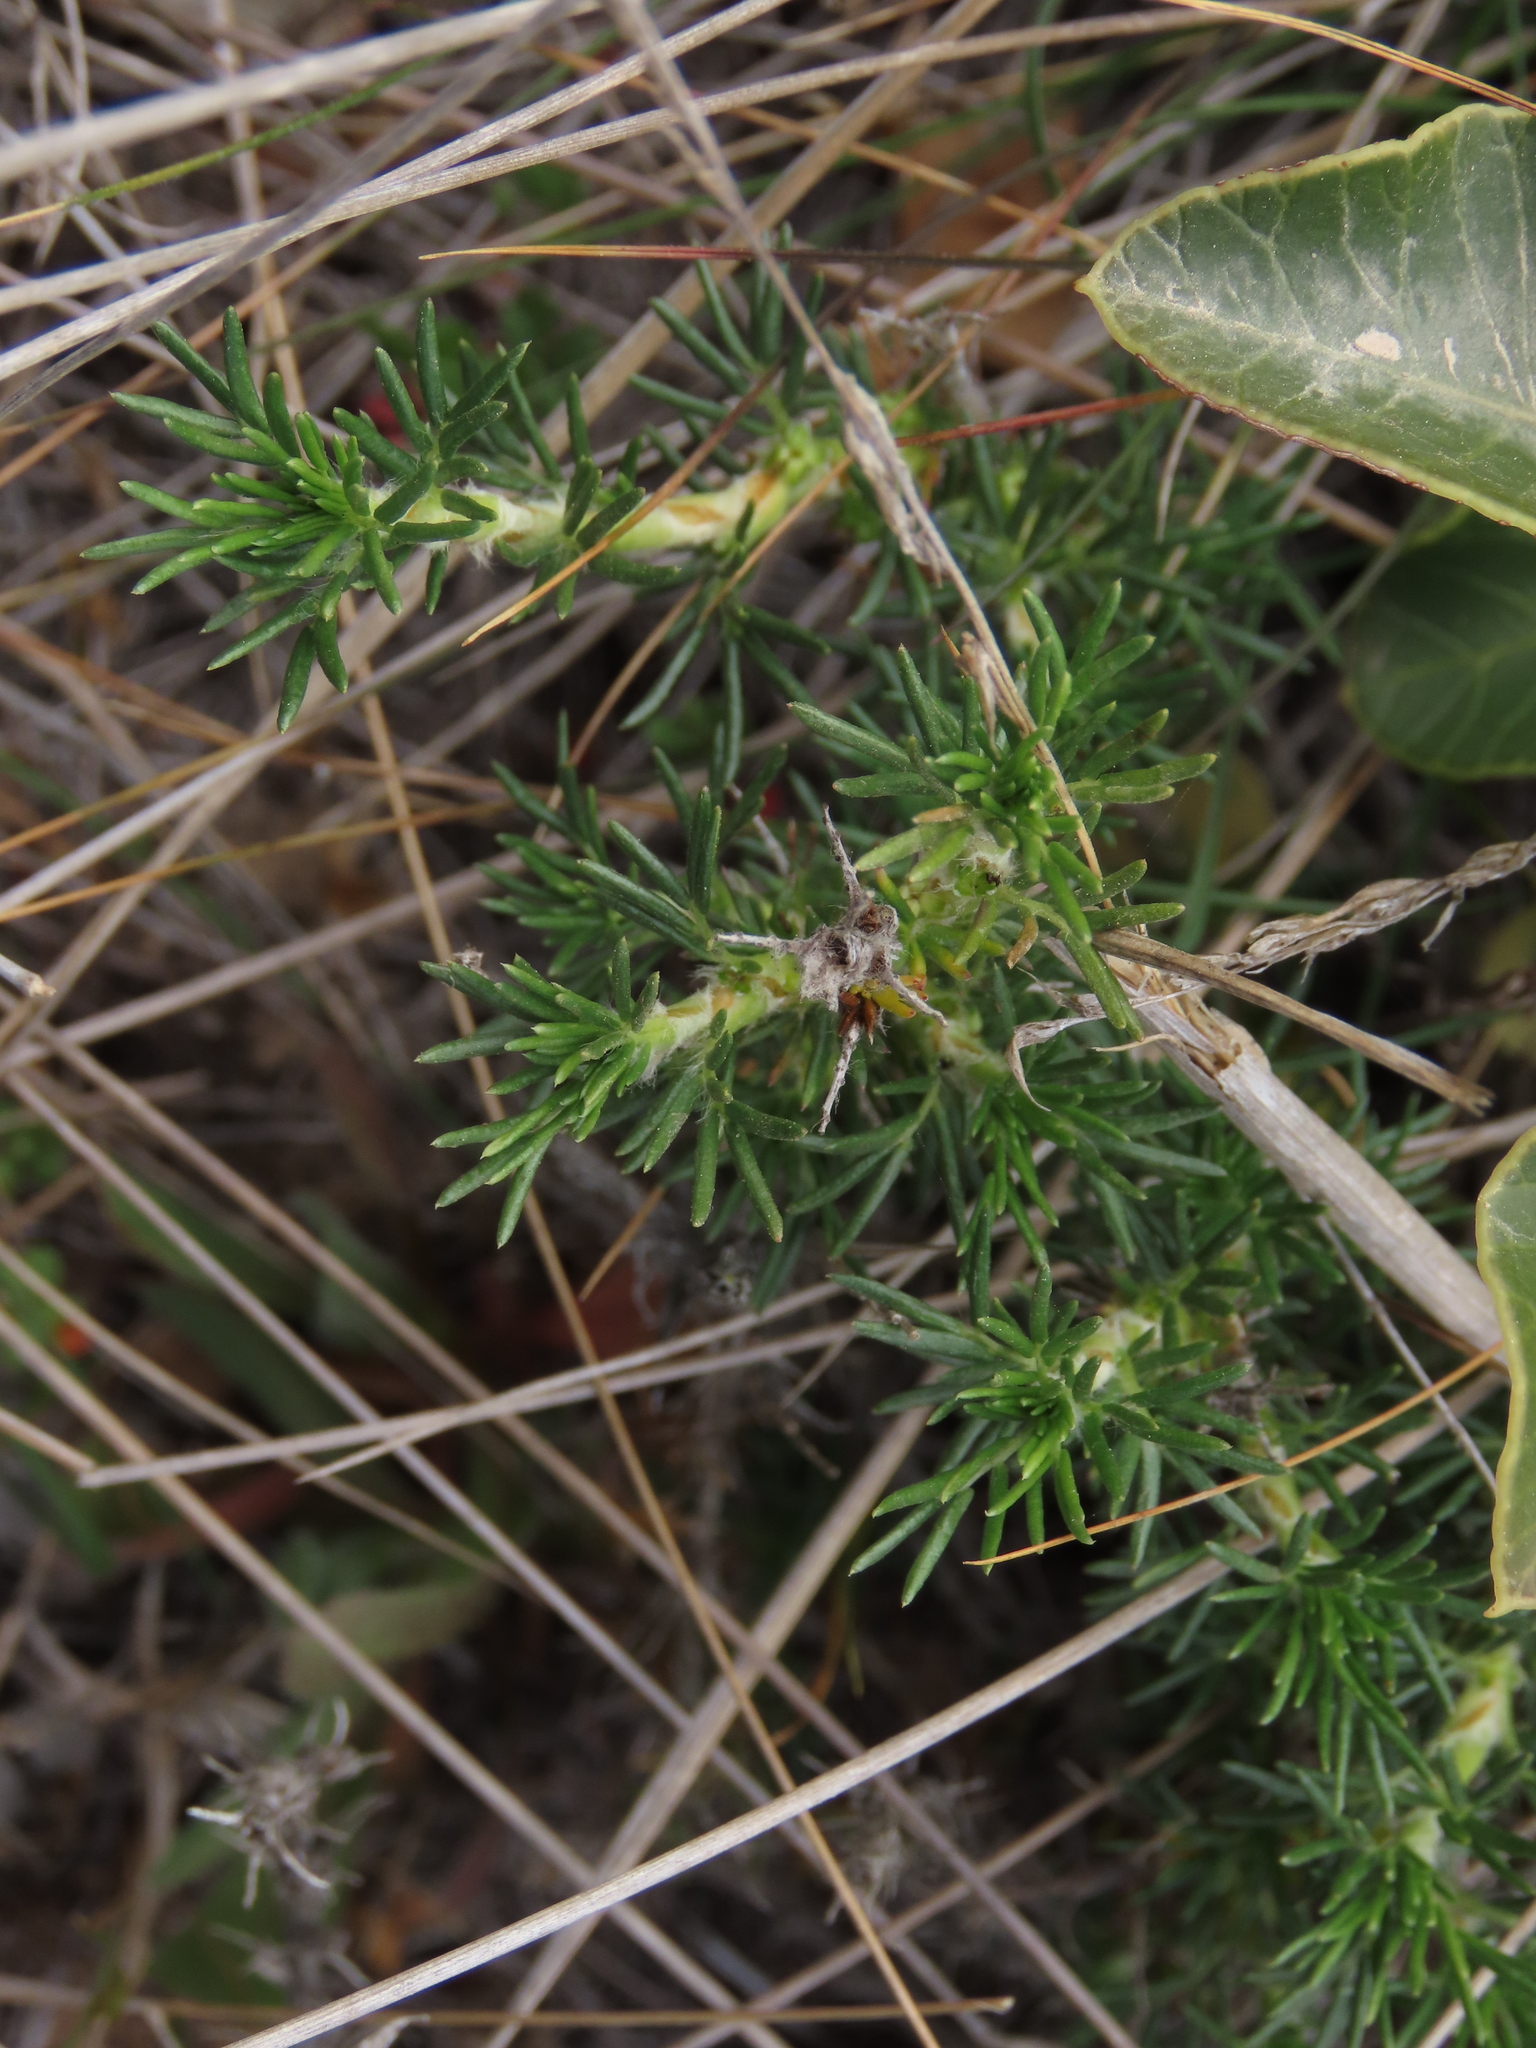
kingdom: Plantae
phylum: Tracheophyta
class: Magnoliopsida
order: Rosales
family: Rosaceae
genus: Margyricarpus
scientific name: Margyricarpus pinnatus
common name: Pearlfruit
